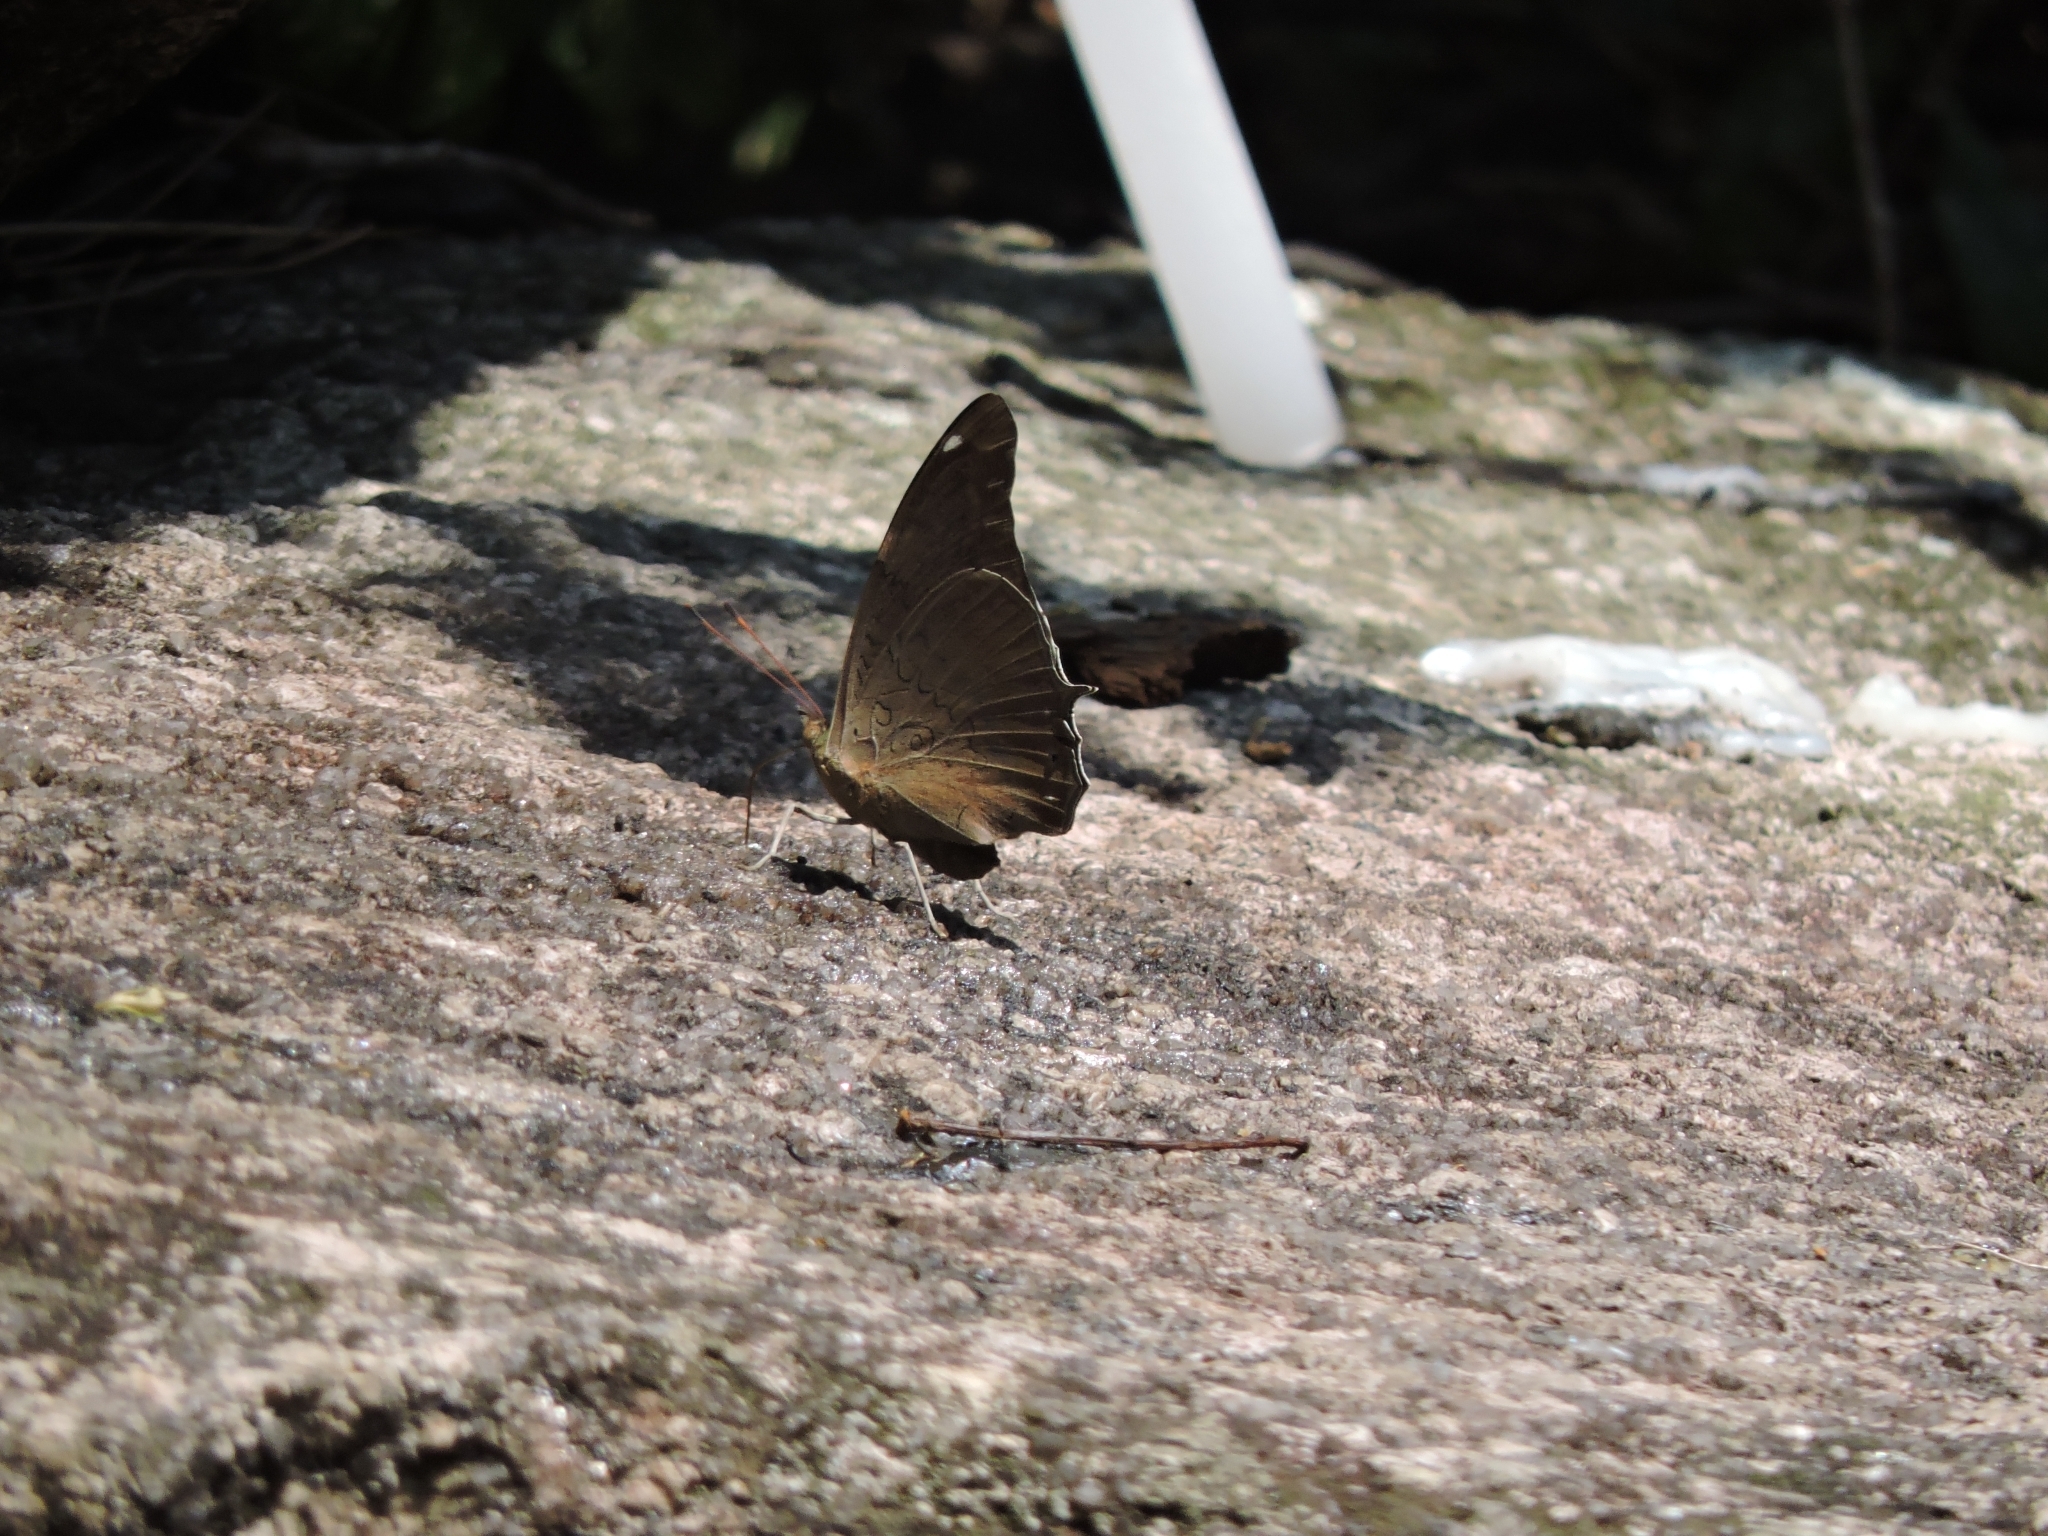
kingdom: Animalia
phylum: Arthropoda
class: Insecta
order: Lepidoptera
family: Nymphalidae
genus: Coea
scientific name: Coea acheronta
